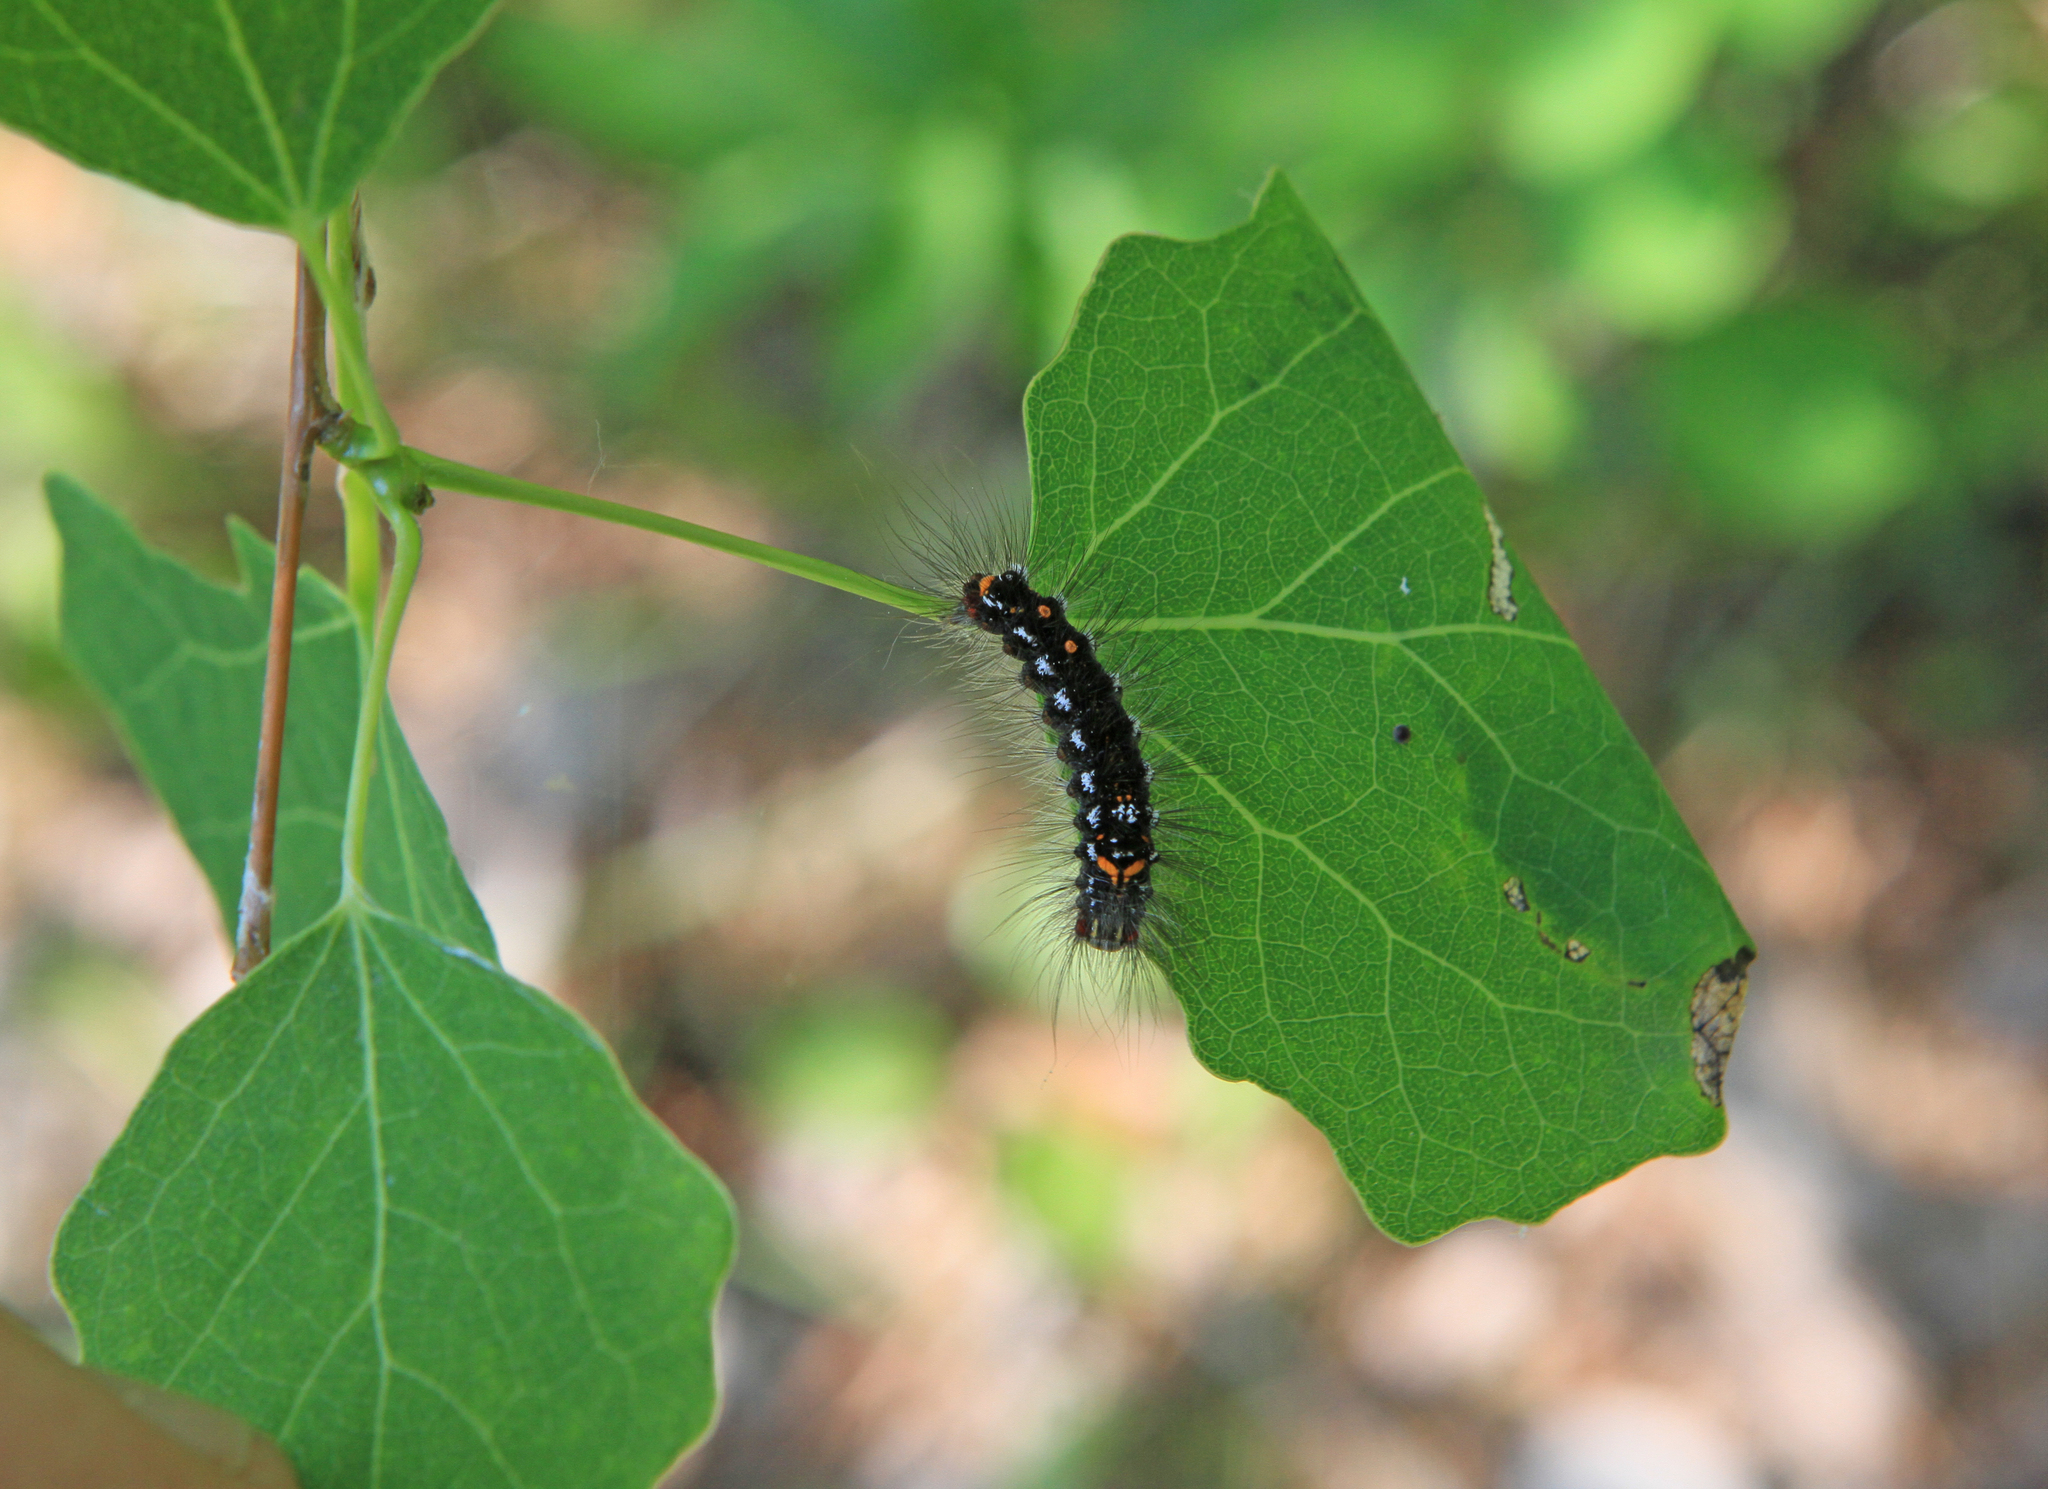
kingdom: Plantae
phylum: Tracheophyta
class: Magnoliopsida
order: Malpighiales
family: Salicaceae
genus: Populus
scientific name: Populus tremula
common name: European aspen
